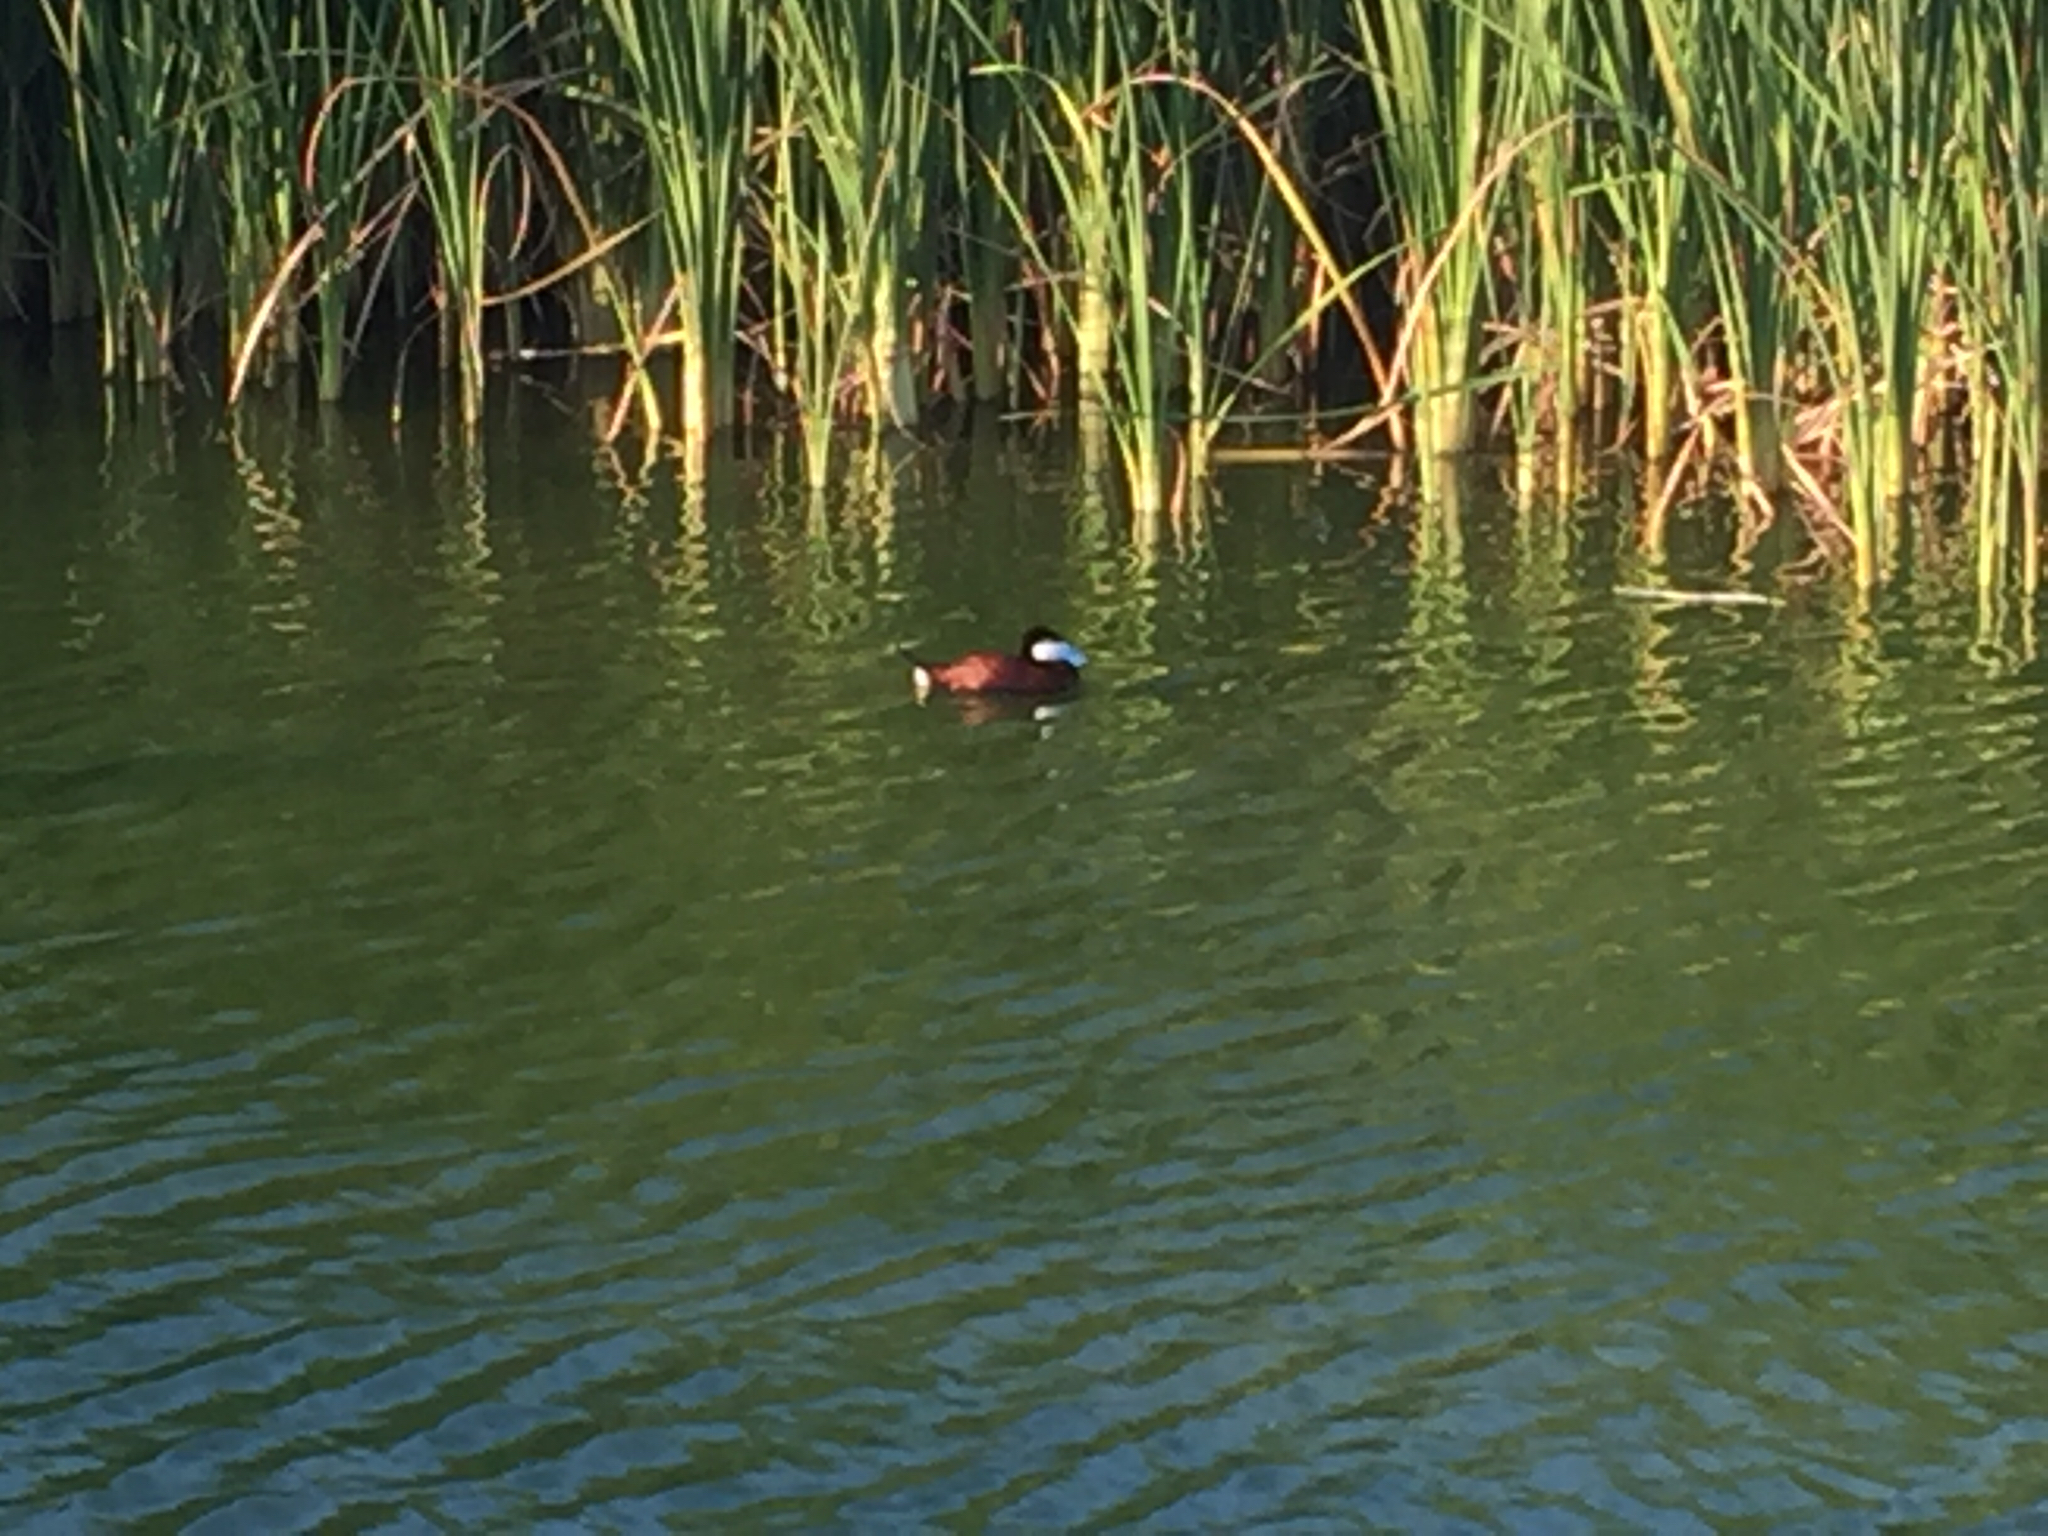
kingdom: Animalia
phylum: Chordata
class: Aves
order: Anseriformes
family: Anatidae
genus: Oxyura
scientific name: Oxyura jamaicensis
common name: Ruddy duck
